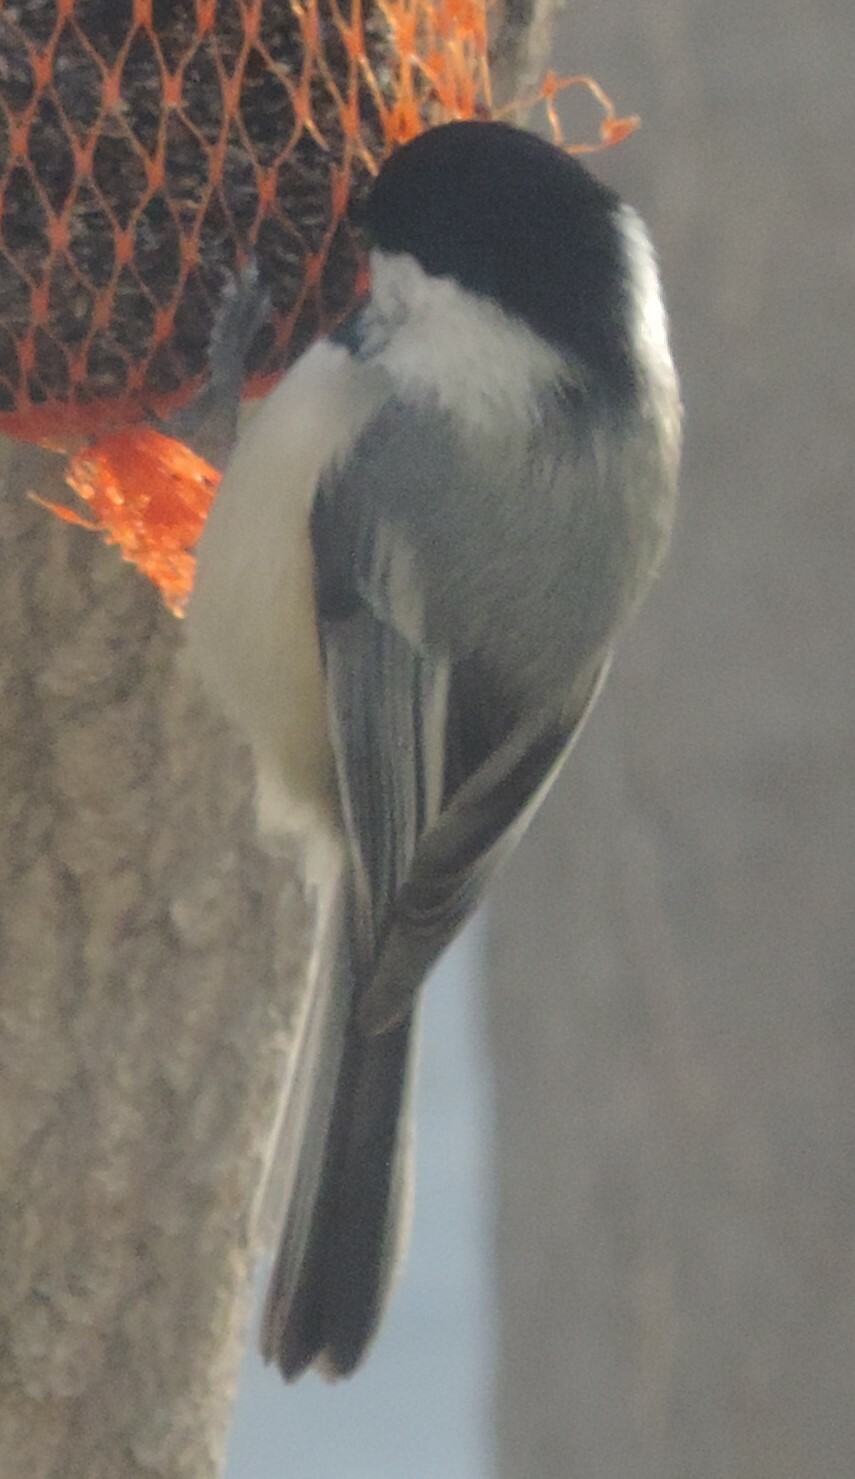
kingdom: Animalia
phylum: Chordata
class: Aves
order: Passeriformes
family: Paridae
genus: Poecile
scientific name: Poecile atricapillus
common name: Black-capped chickadee
